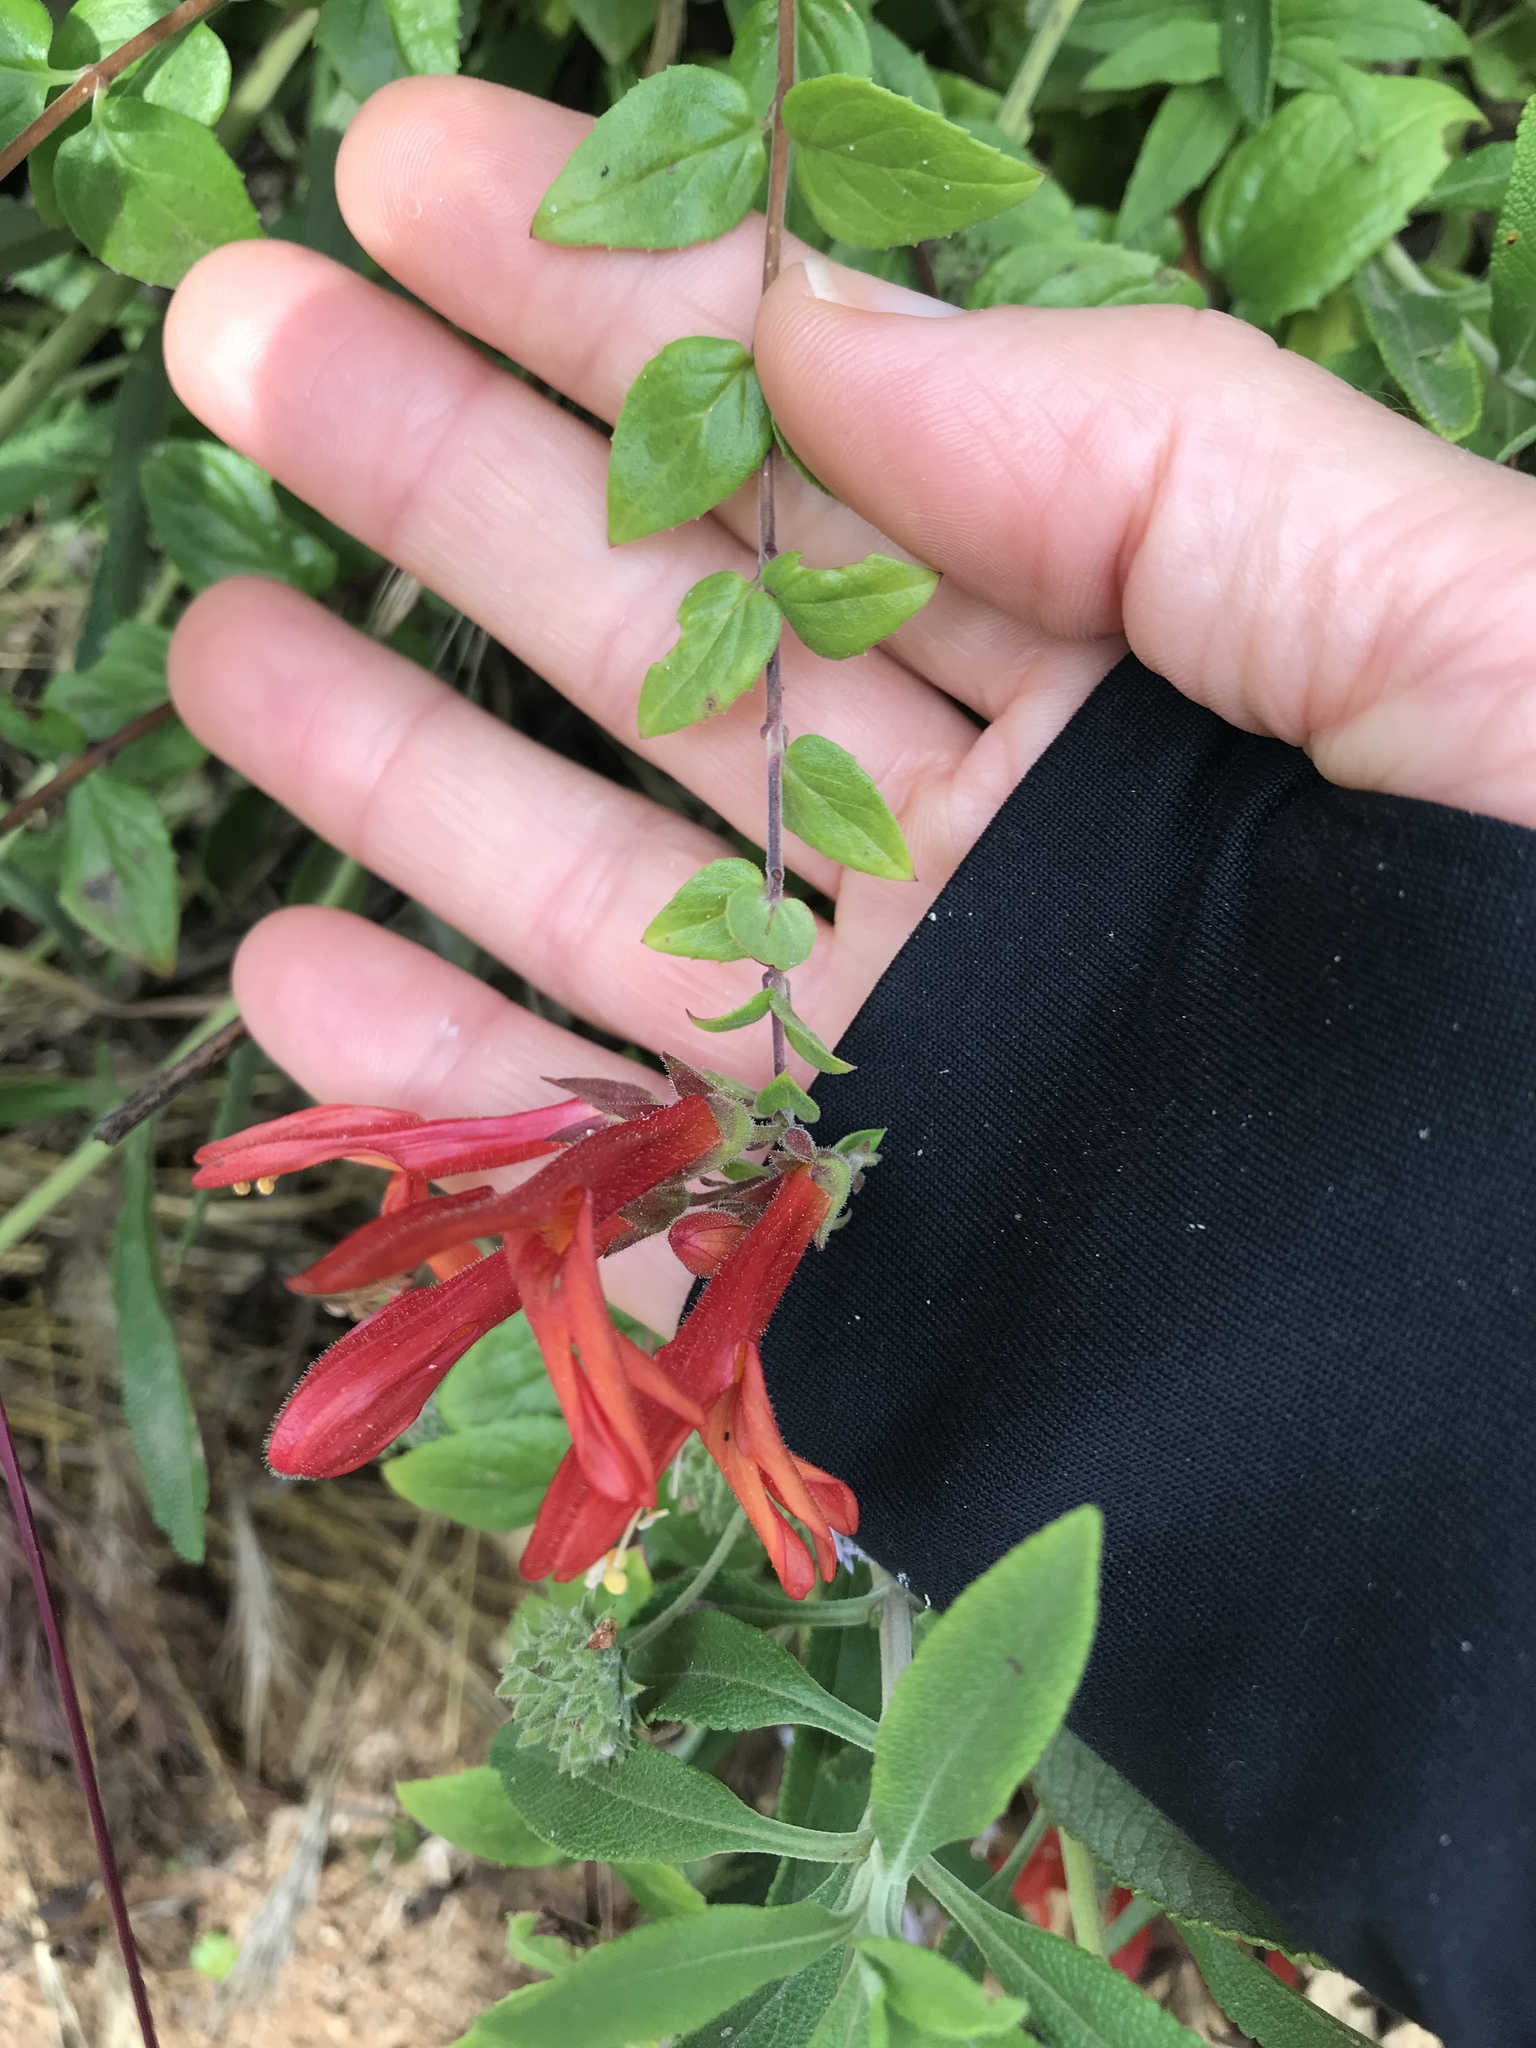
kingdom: Plantae
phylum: Tracheophyta
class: Magnoliopsida
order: Lamiales
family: Plantaginaceae
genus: Keckiella
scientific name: Keckiella cordifolia
